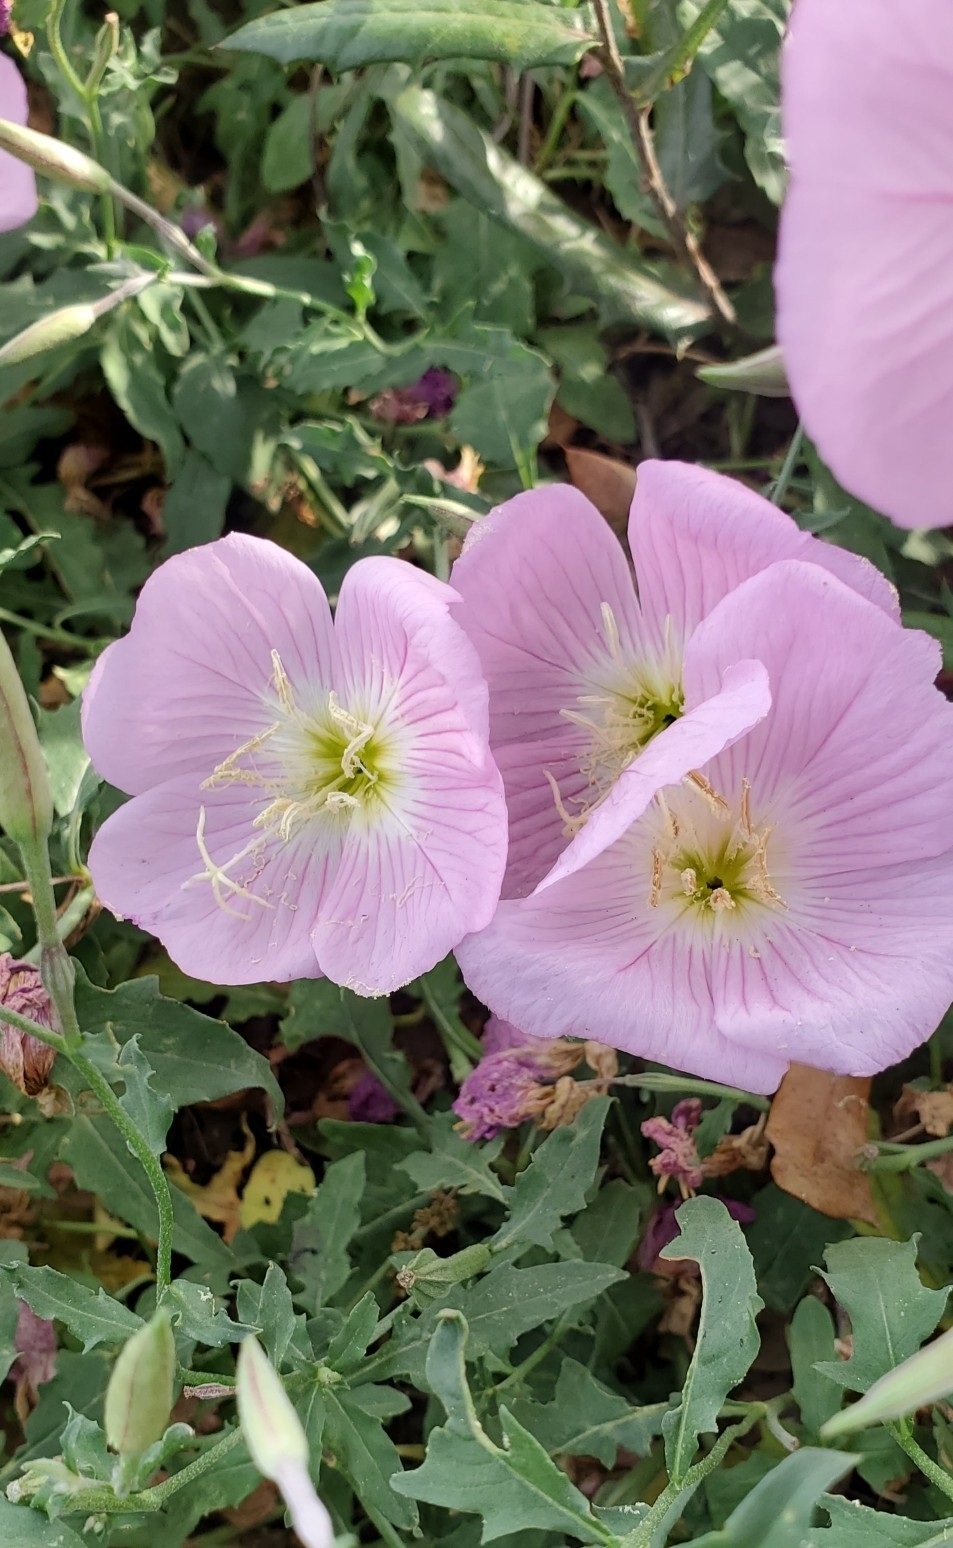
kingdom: Plantae
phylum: Tracheophyta
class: Magnoliopsida
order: Myrtales
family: Onagraceae
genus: Oenothera
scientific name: Oenothera speciosa
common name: White evening-primrose
